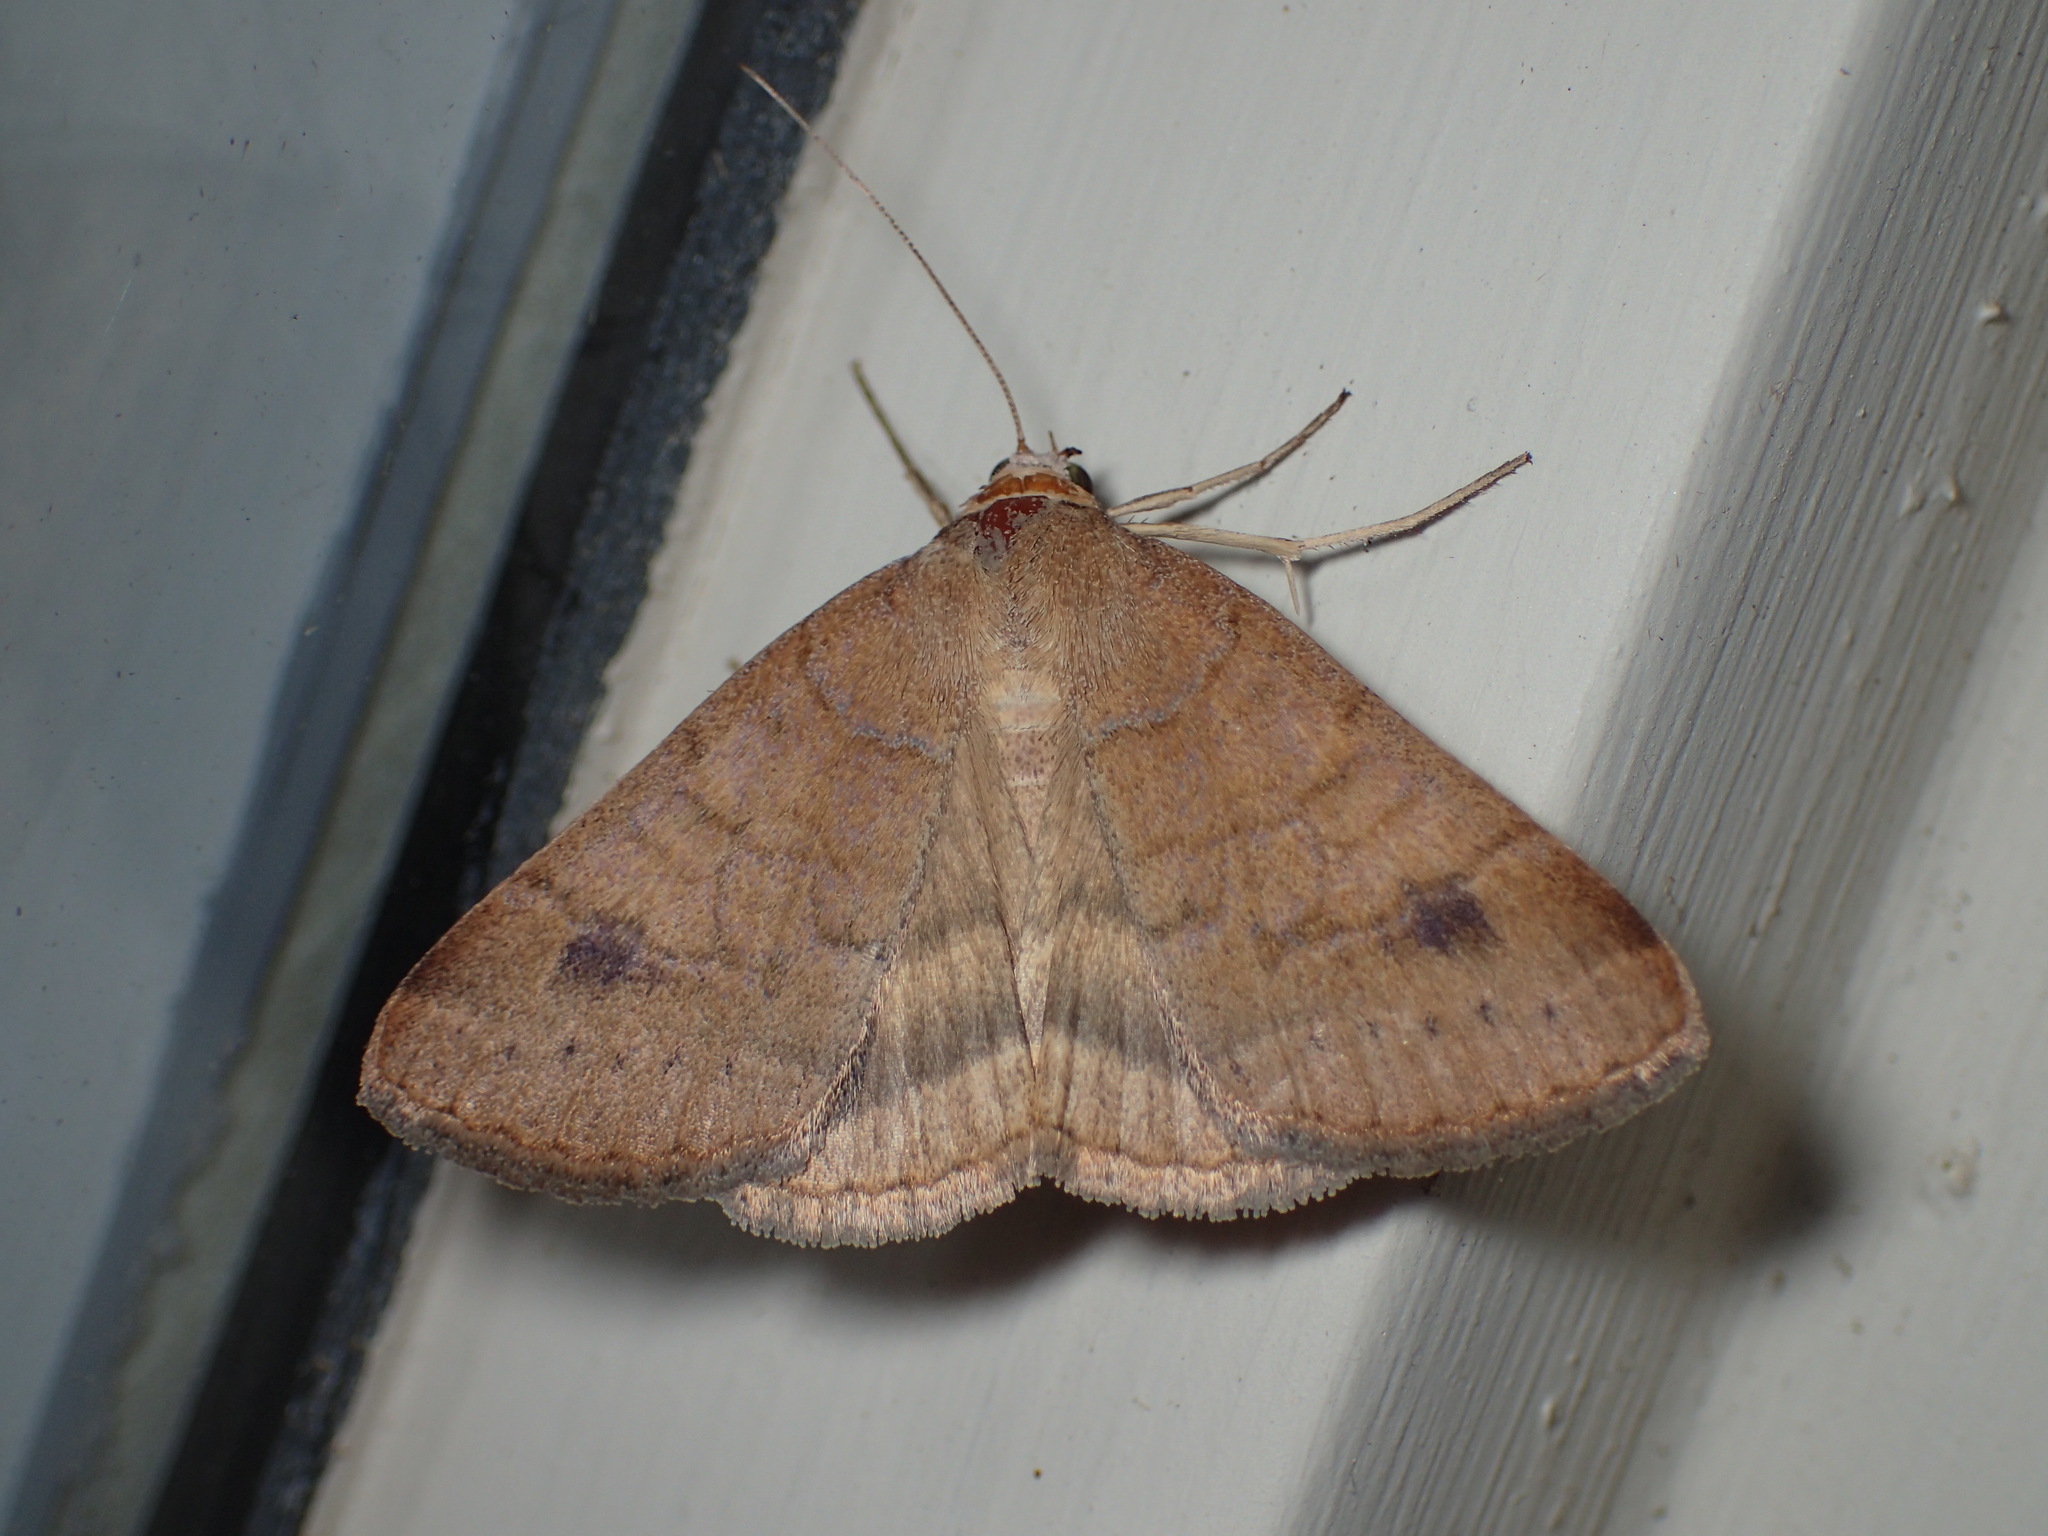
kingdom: Animalia
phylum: Arthropoda
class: Insecta
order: Lepidoptera
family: Erebidae
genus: Caenurgia
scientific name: Caenurgia chloropha
